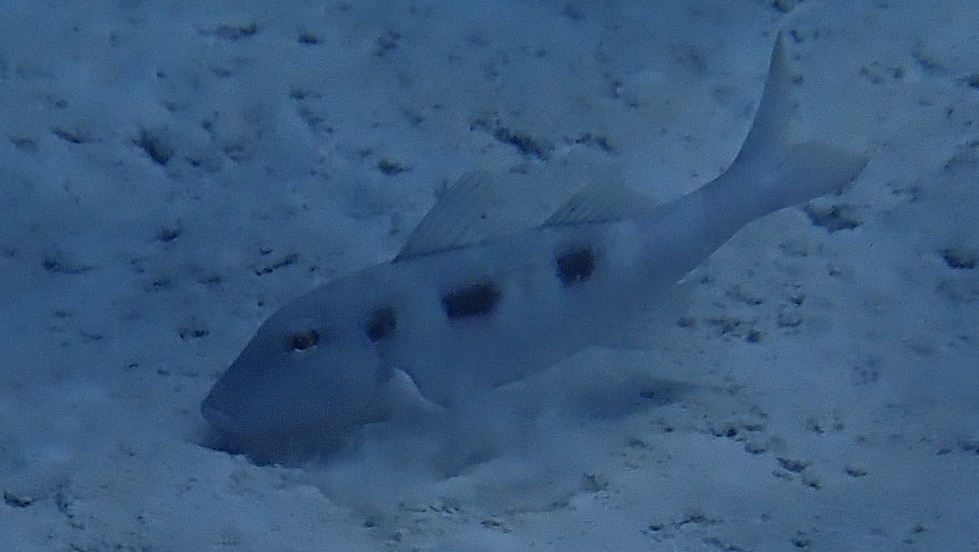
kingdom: Animalia
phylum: Chordata
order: Perciformes
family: Mullidae
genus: Pseudupeneus
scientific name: Pseudupeneus maculatus
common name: Spotted goatfish
